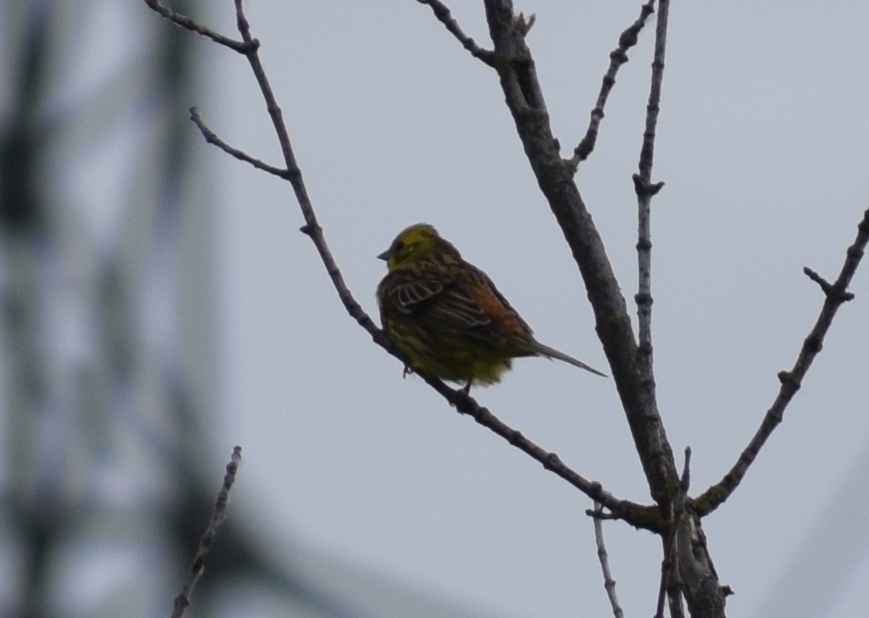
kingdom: Animalia
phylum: Chordata
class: Aves
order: Passeriformes
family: Emberizidae
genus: Emberiza
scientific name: Emberiza citrinella
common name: Yellowhammer
